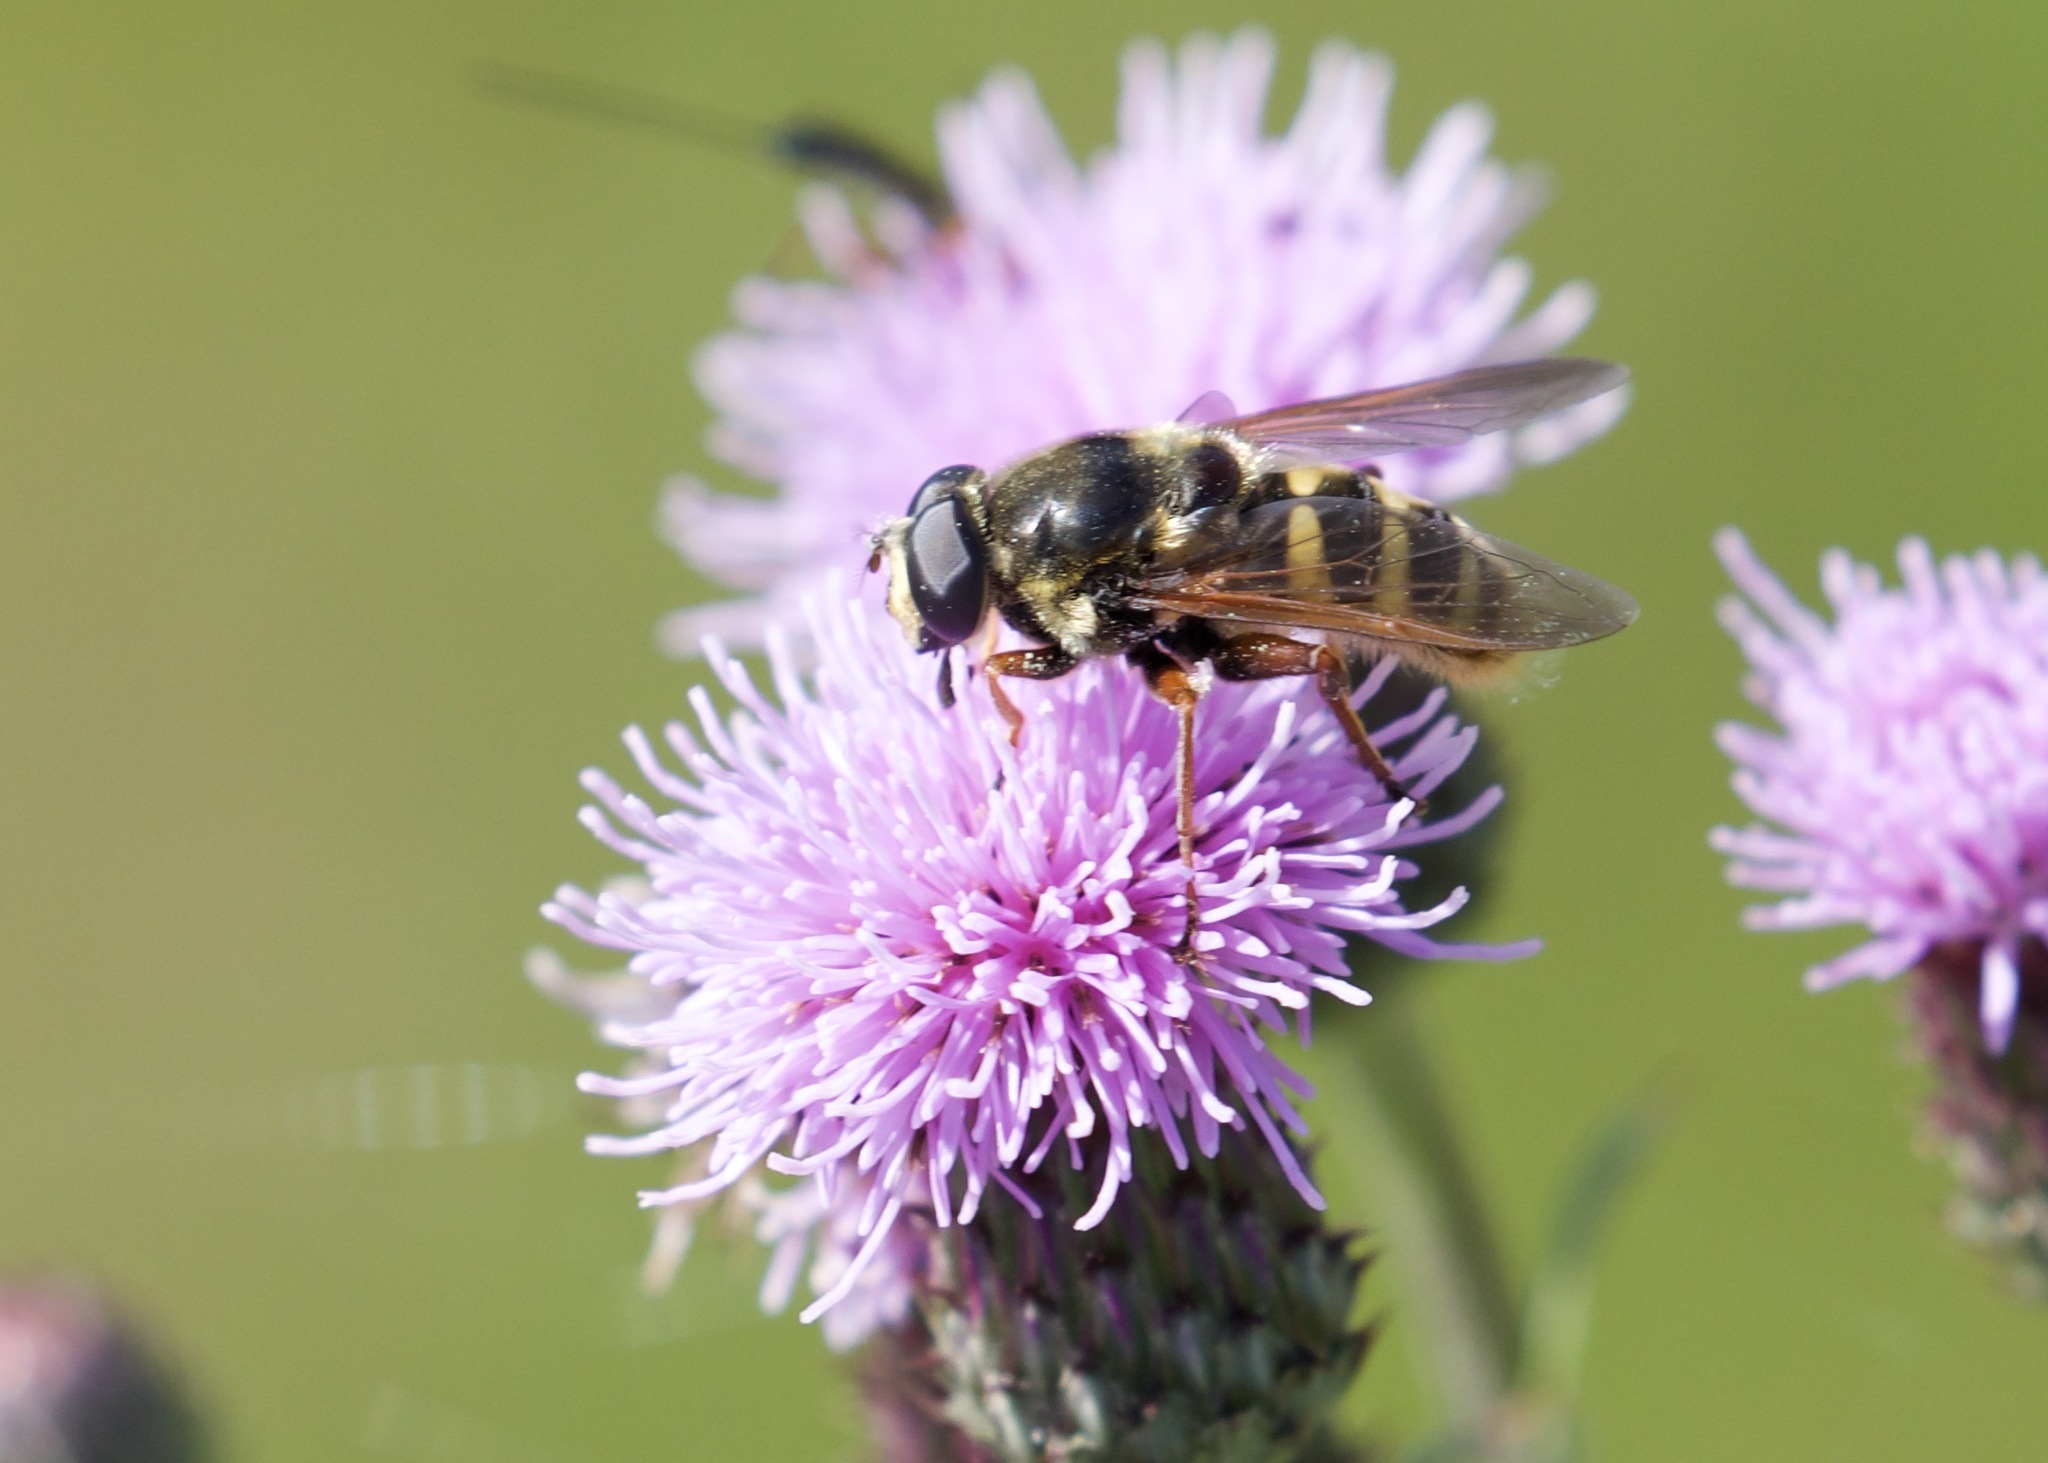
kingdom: Animalia
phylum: Arthropoda
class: Insecta
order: Diptera
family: Syrphidae
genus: Sericomyia
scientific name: Sericomyia silentis
